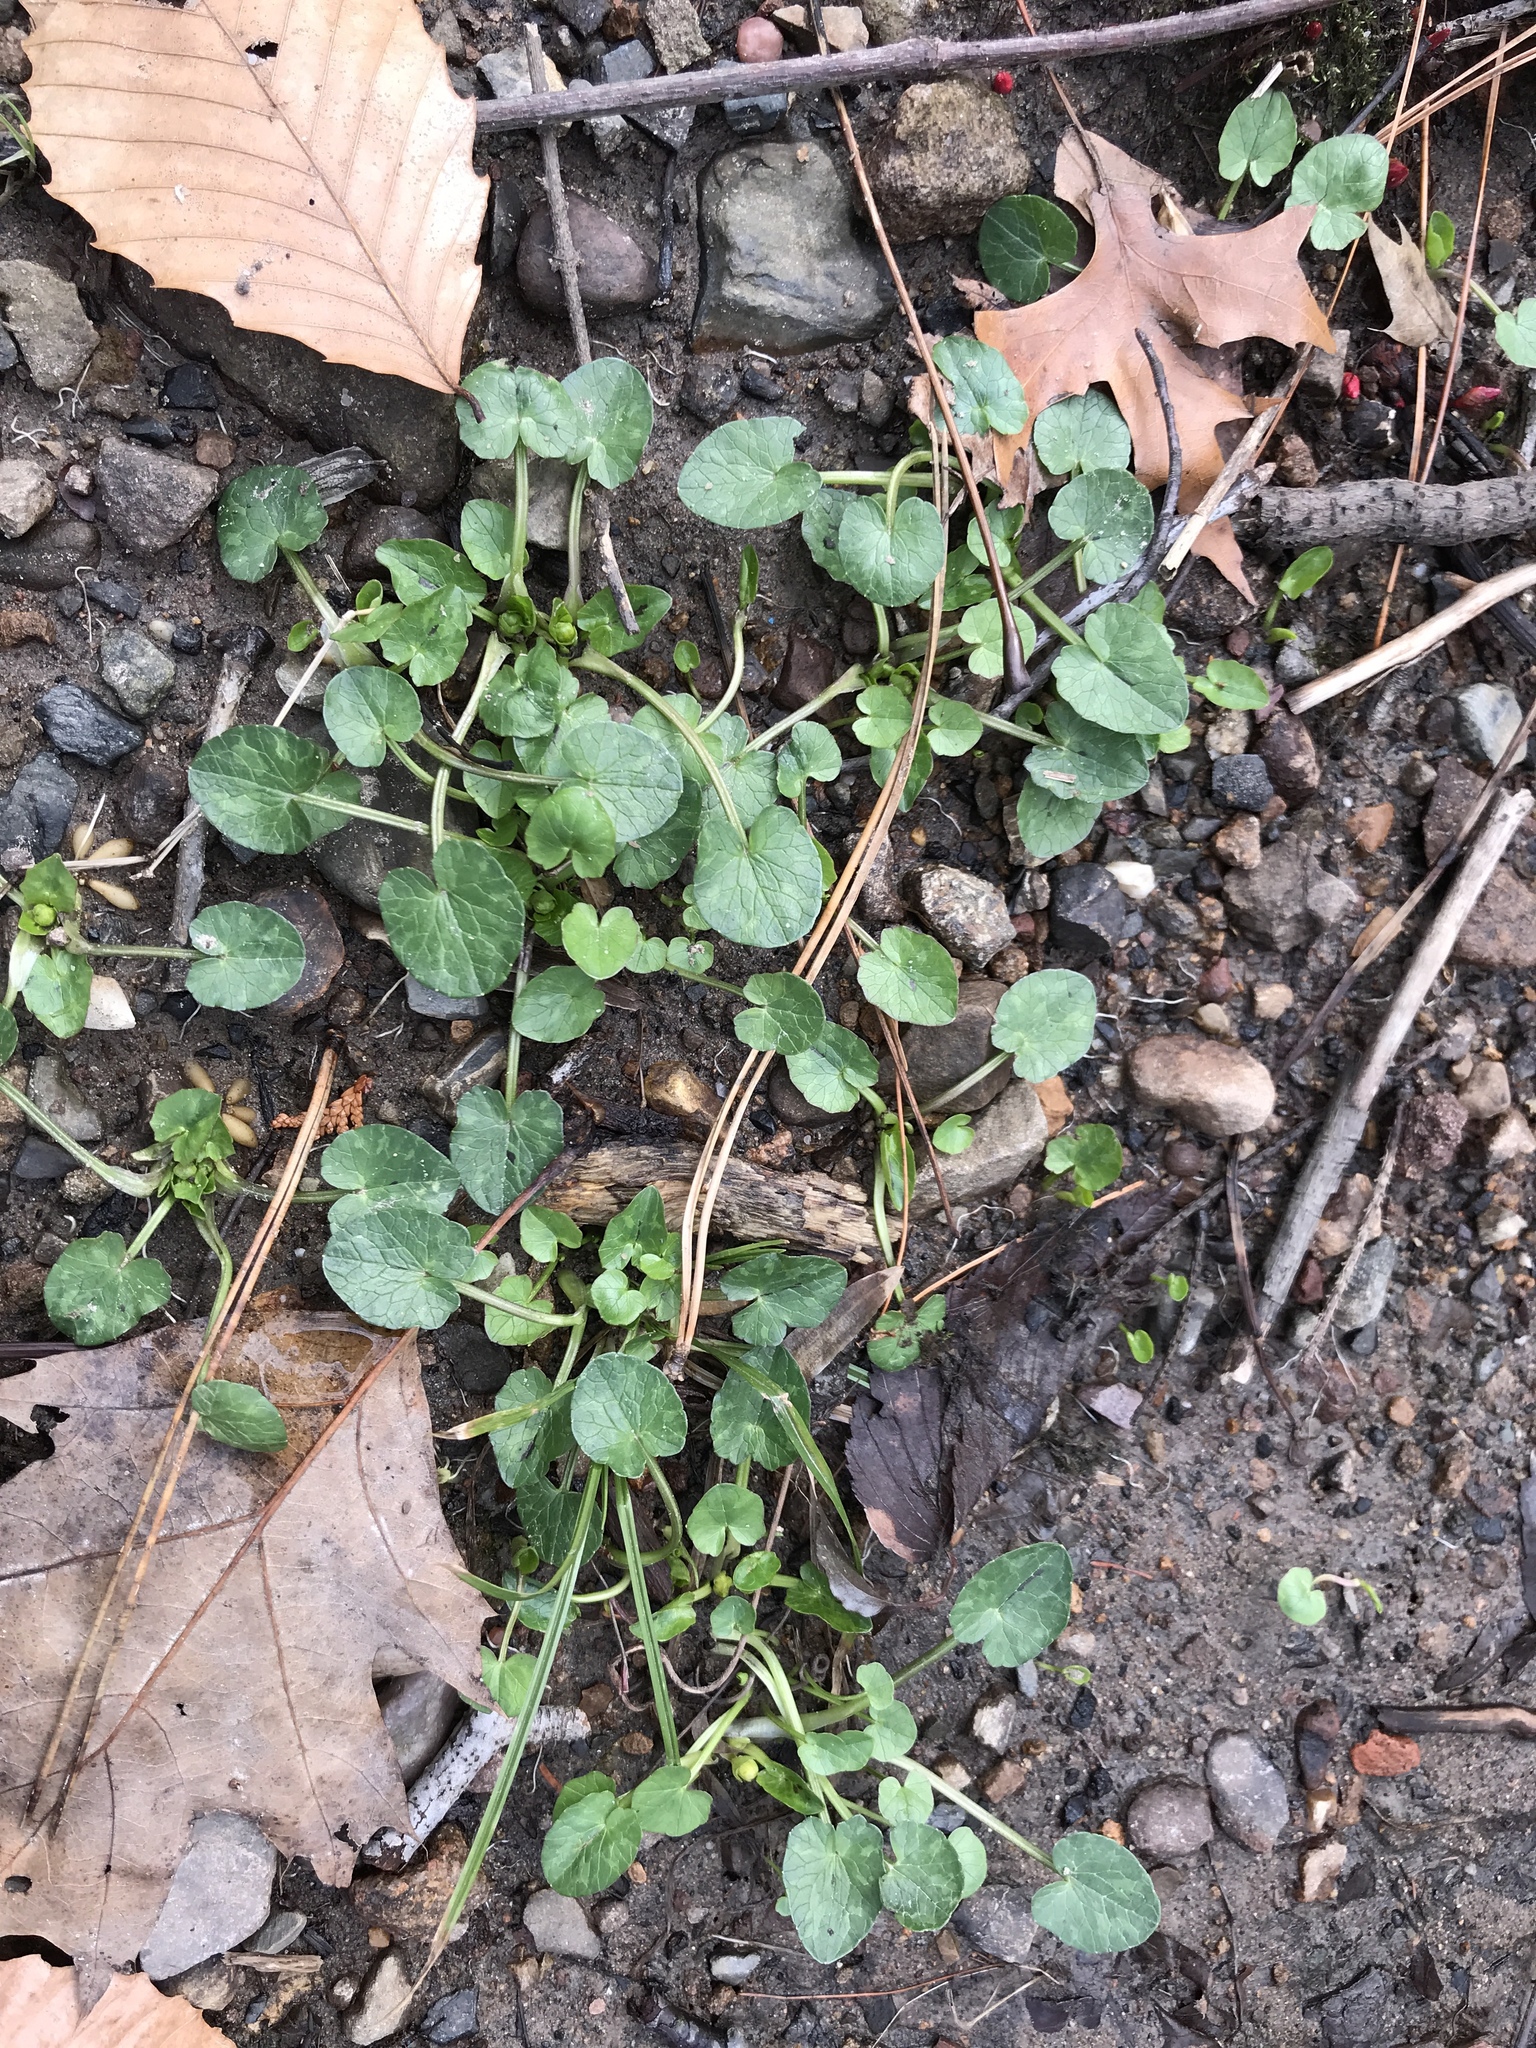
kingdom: Plantae
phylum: Tracheophyta
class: Magnoliopsida
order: Ranunculales
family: Ranunculaceae
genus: Ficaria
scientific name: Ficaria verna
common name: Lesser celandine
